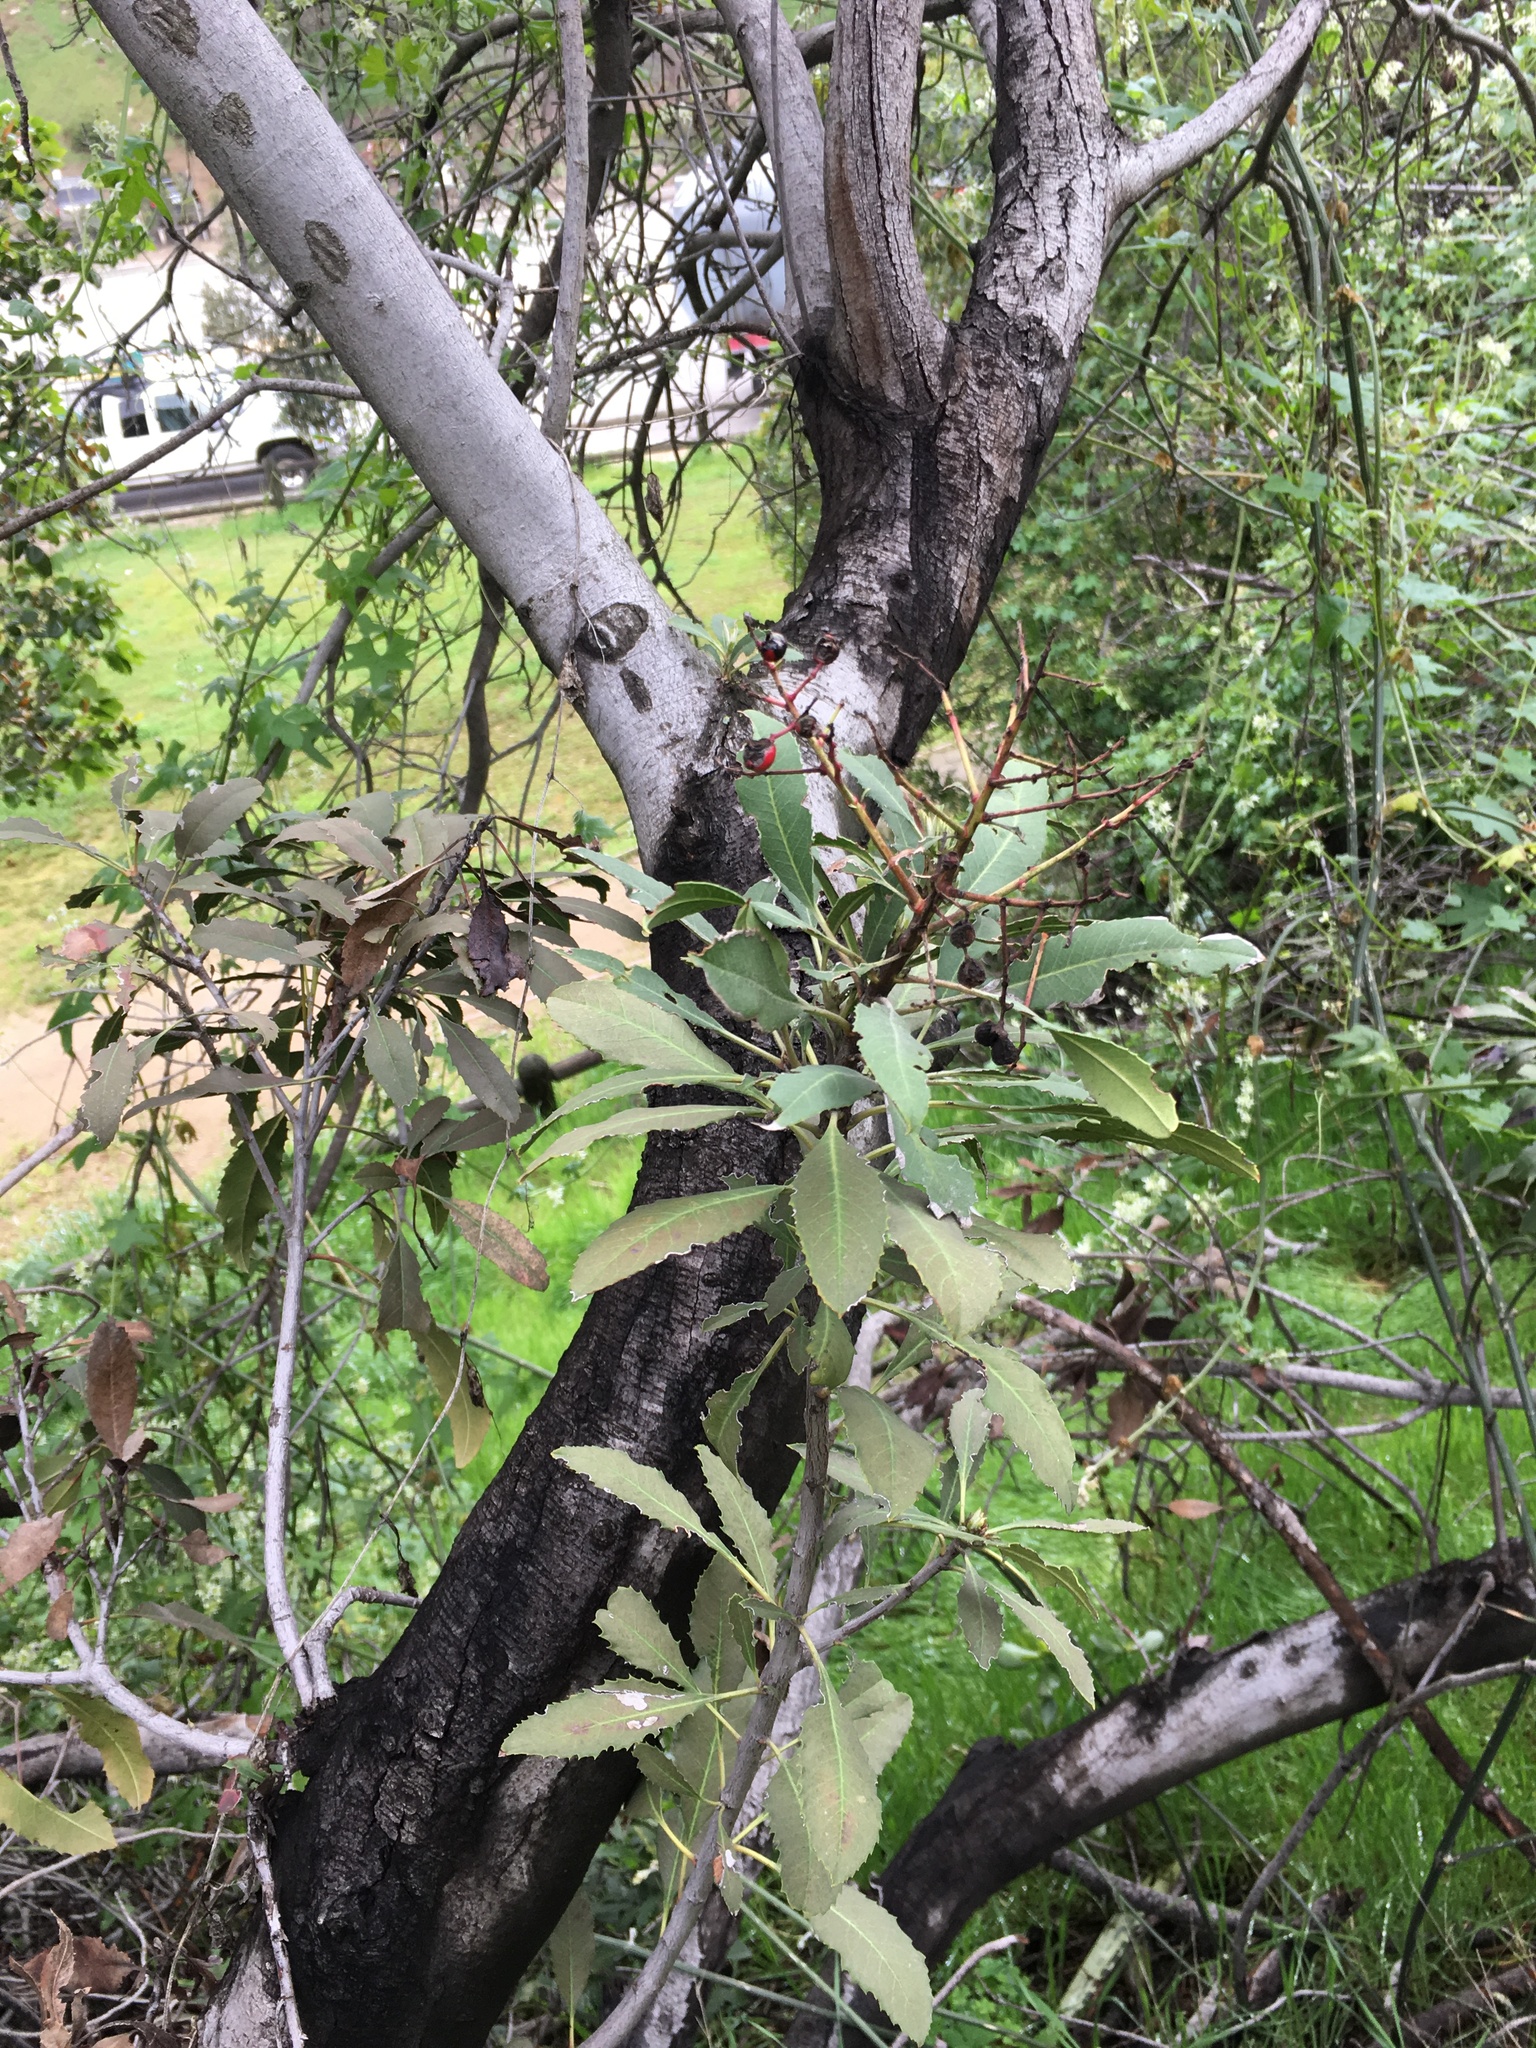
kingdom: Plantae
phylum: Tracheophyta
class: Magnoliopsida
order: Rosales
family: Rosaceae
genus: Heteromeles
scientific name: Heteromeles arbutifolia
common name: California-holly
